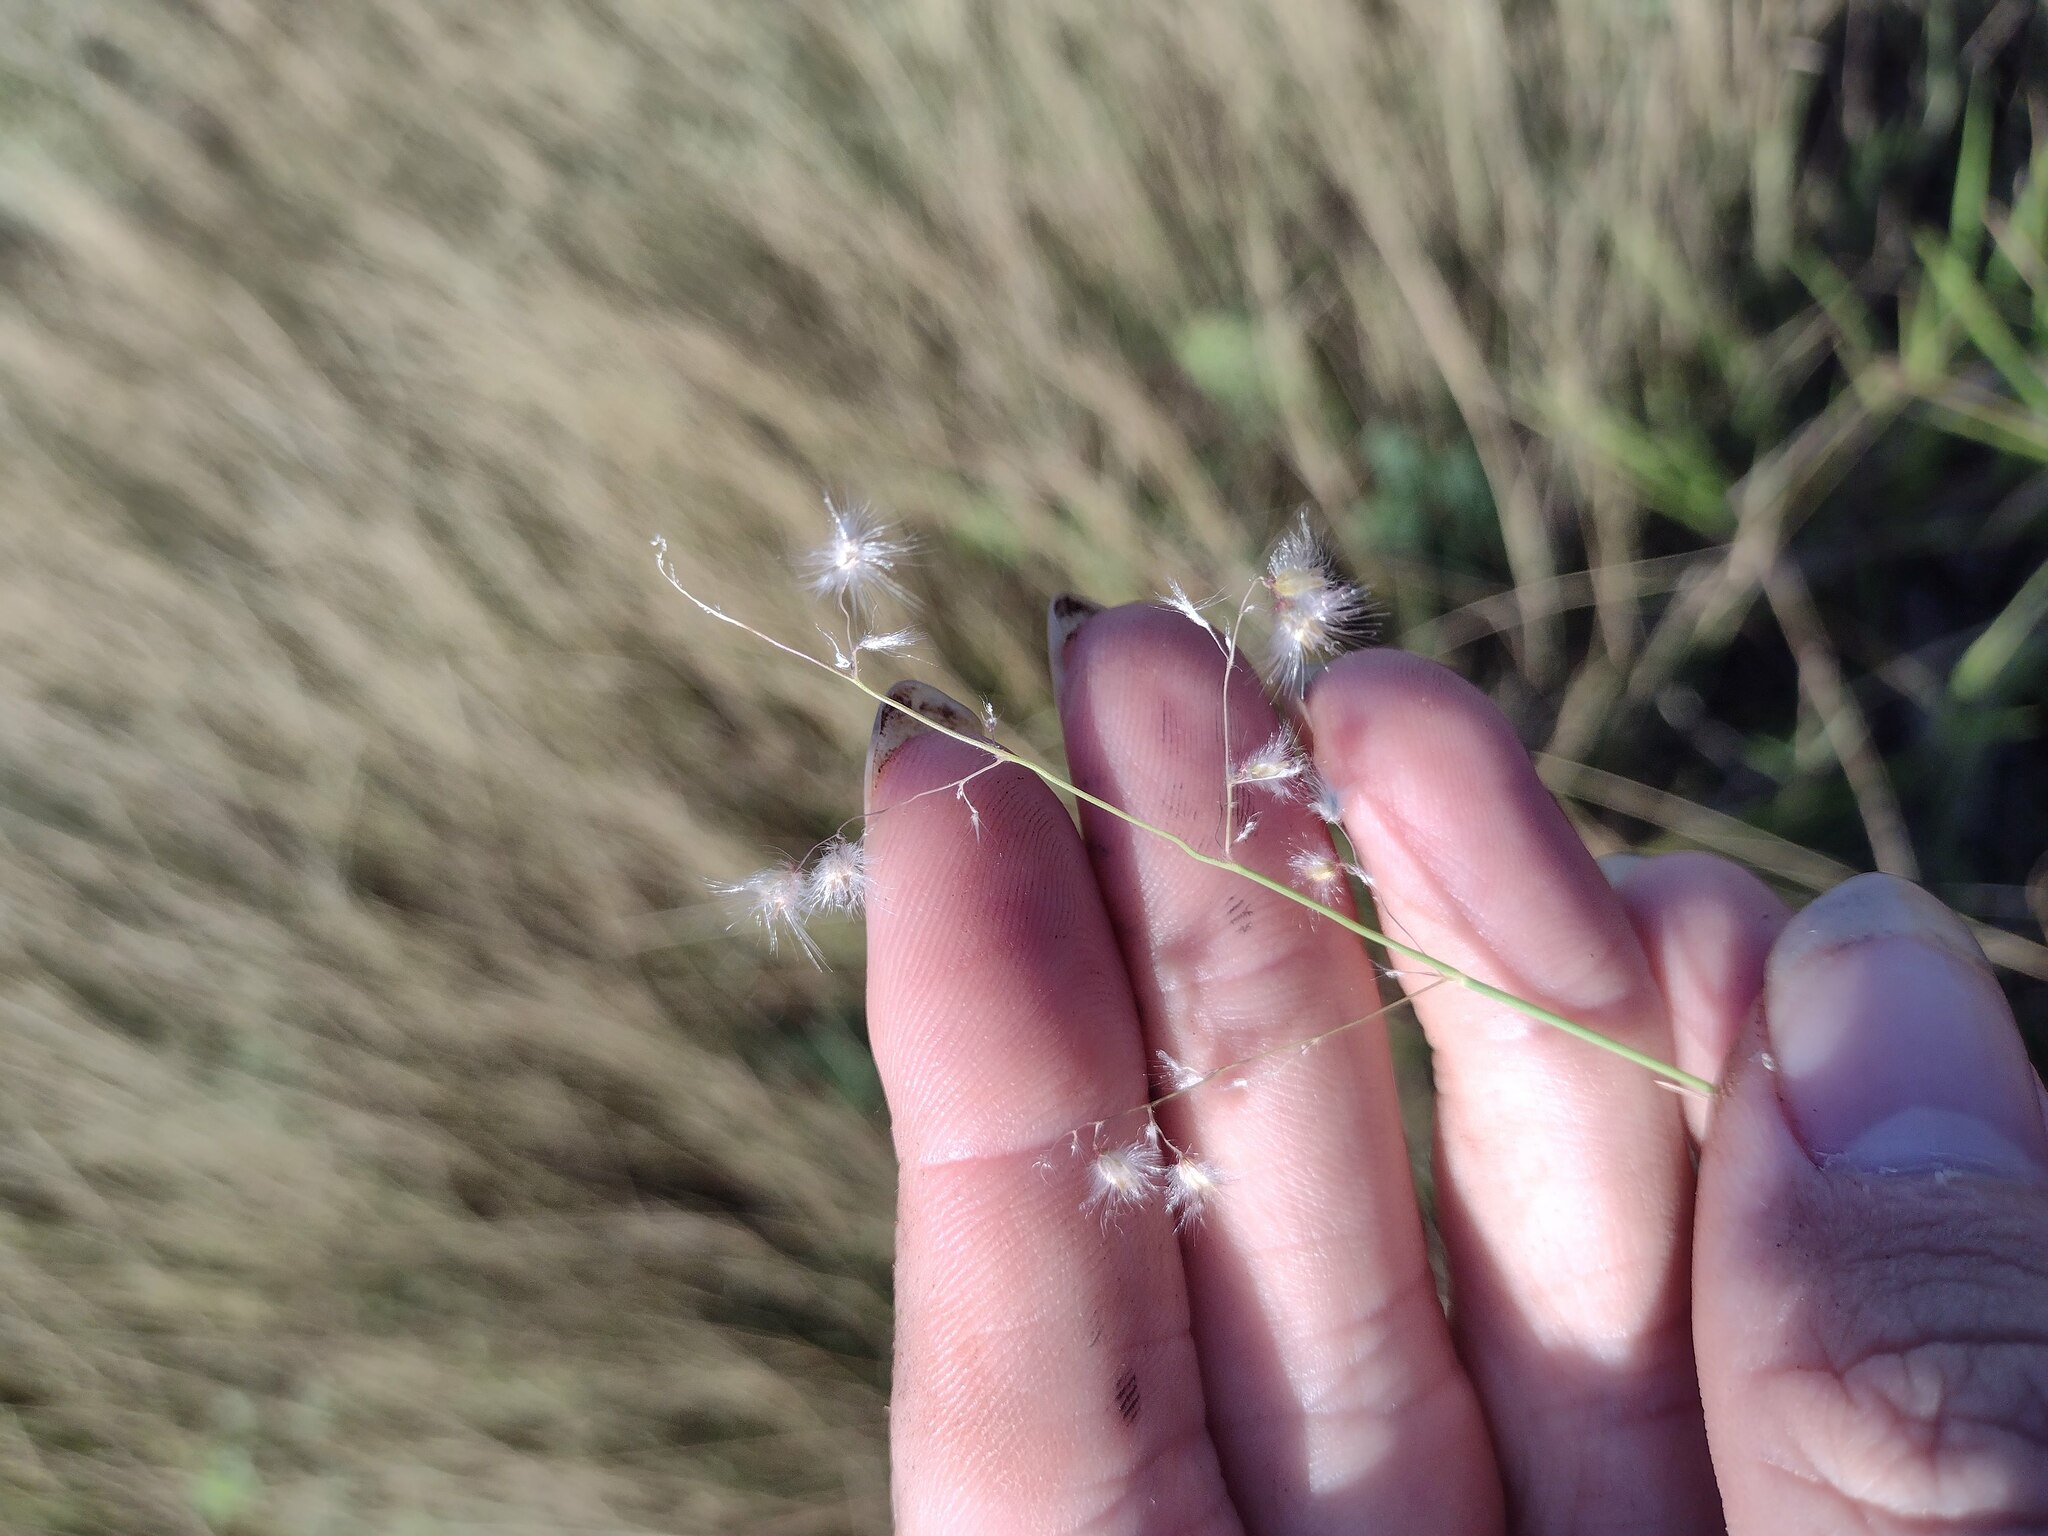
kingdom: Plantae
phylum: Tracheophyta
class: Liliopsida
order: Poales
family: Poaceae
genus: Melinis
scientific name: Melinis repens
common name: Rose natal grass
